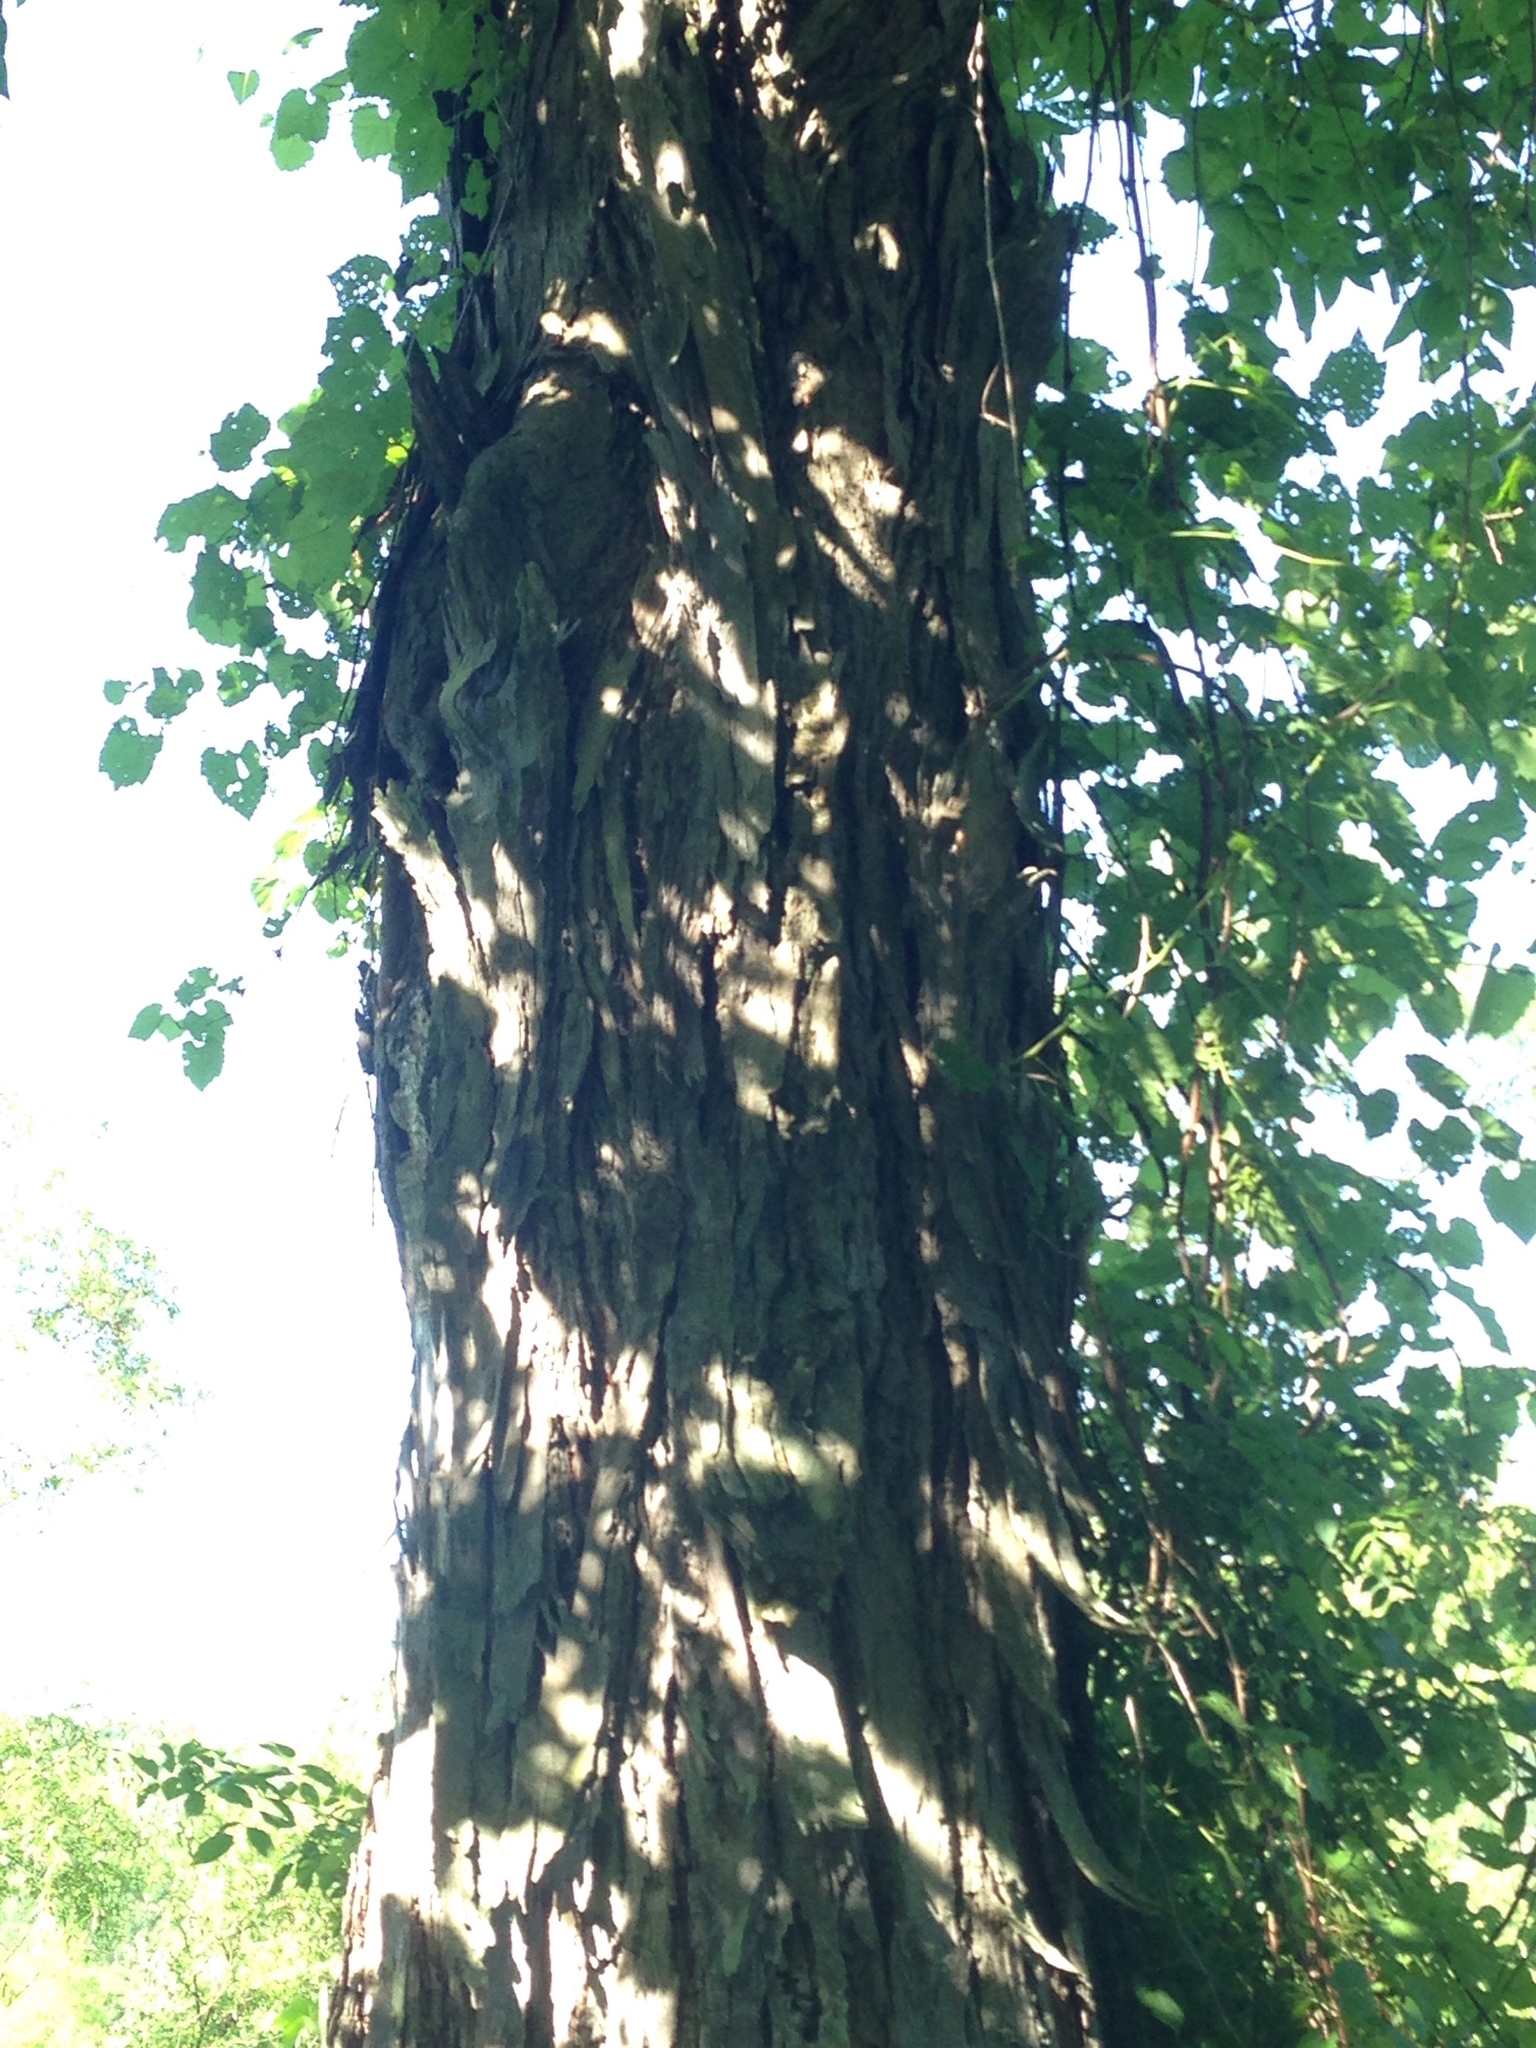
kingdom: Plantae
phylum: Tracheophyta
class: Magnoliopsida
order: Fagales
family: Juglandaceae
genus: Carya
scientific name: Carya ovata
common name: Shagbark hickory
